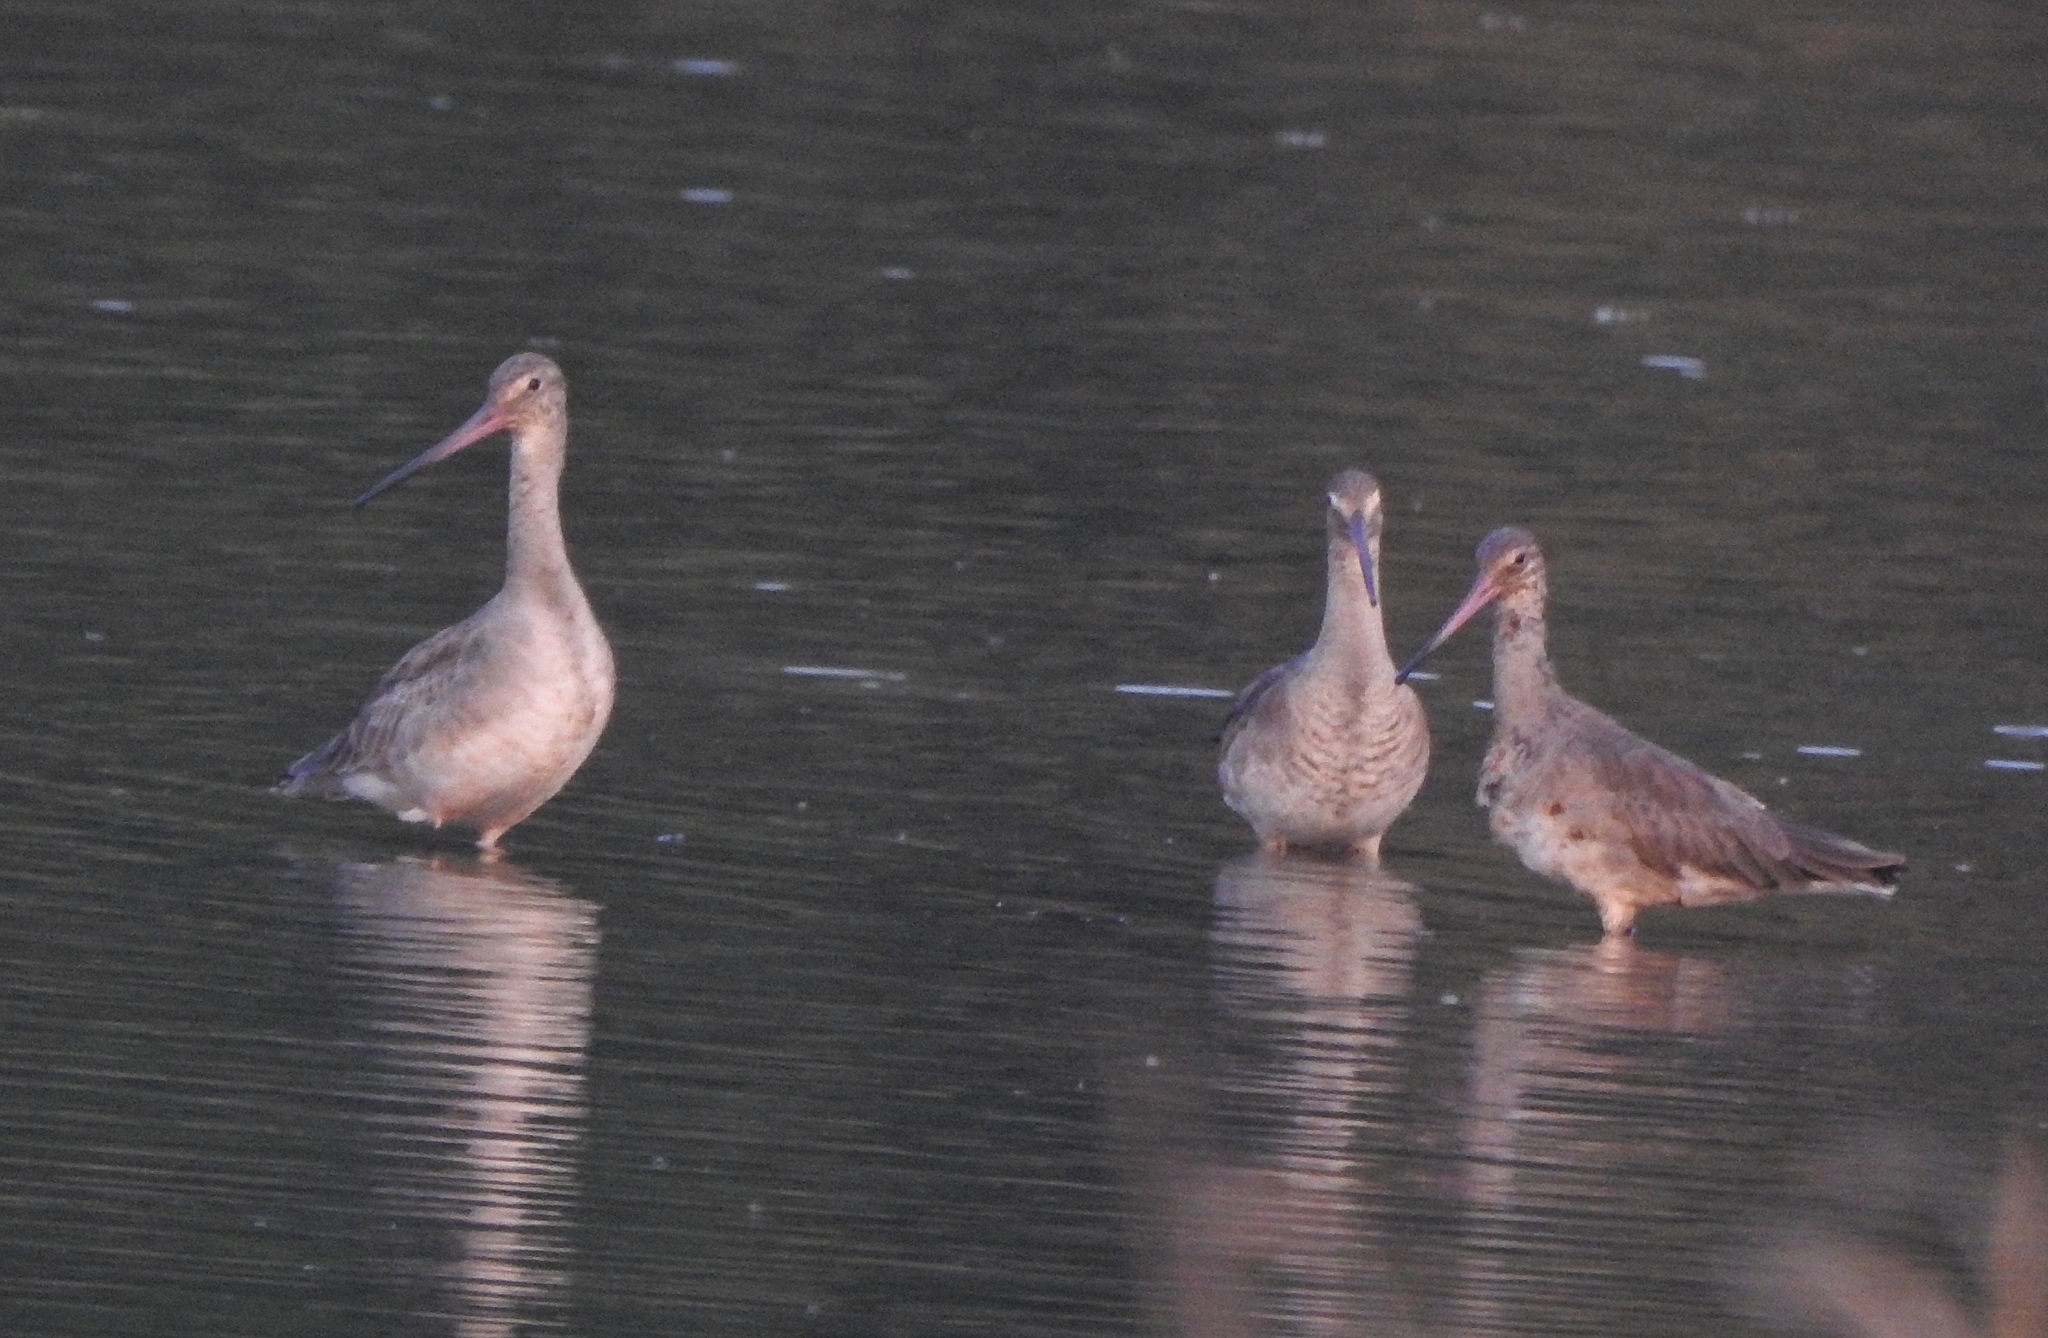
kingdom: Animalia
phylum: Chordata
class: Aves
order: Charadriiformes
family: Scolopacidae
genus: Limosa
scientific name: Limosa limosa
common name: Black-tailed godwit
